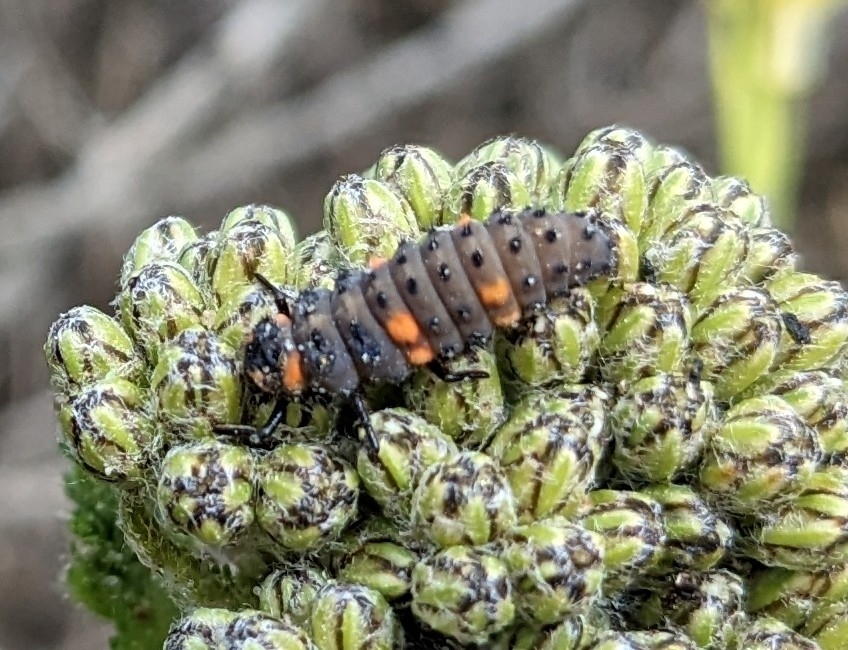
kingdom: Animalia
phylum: Arthropoda
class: Insecta
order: Coleoptera
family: Coccinellidae
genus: Coccinella
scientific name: Coccinella septempunctata
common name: Sevenspotted lady beetle
